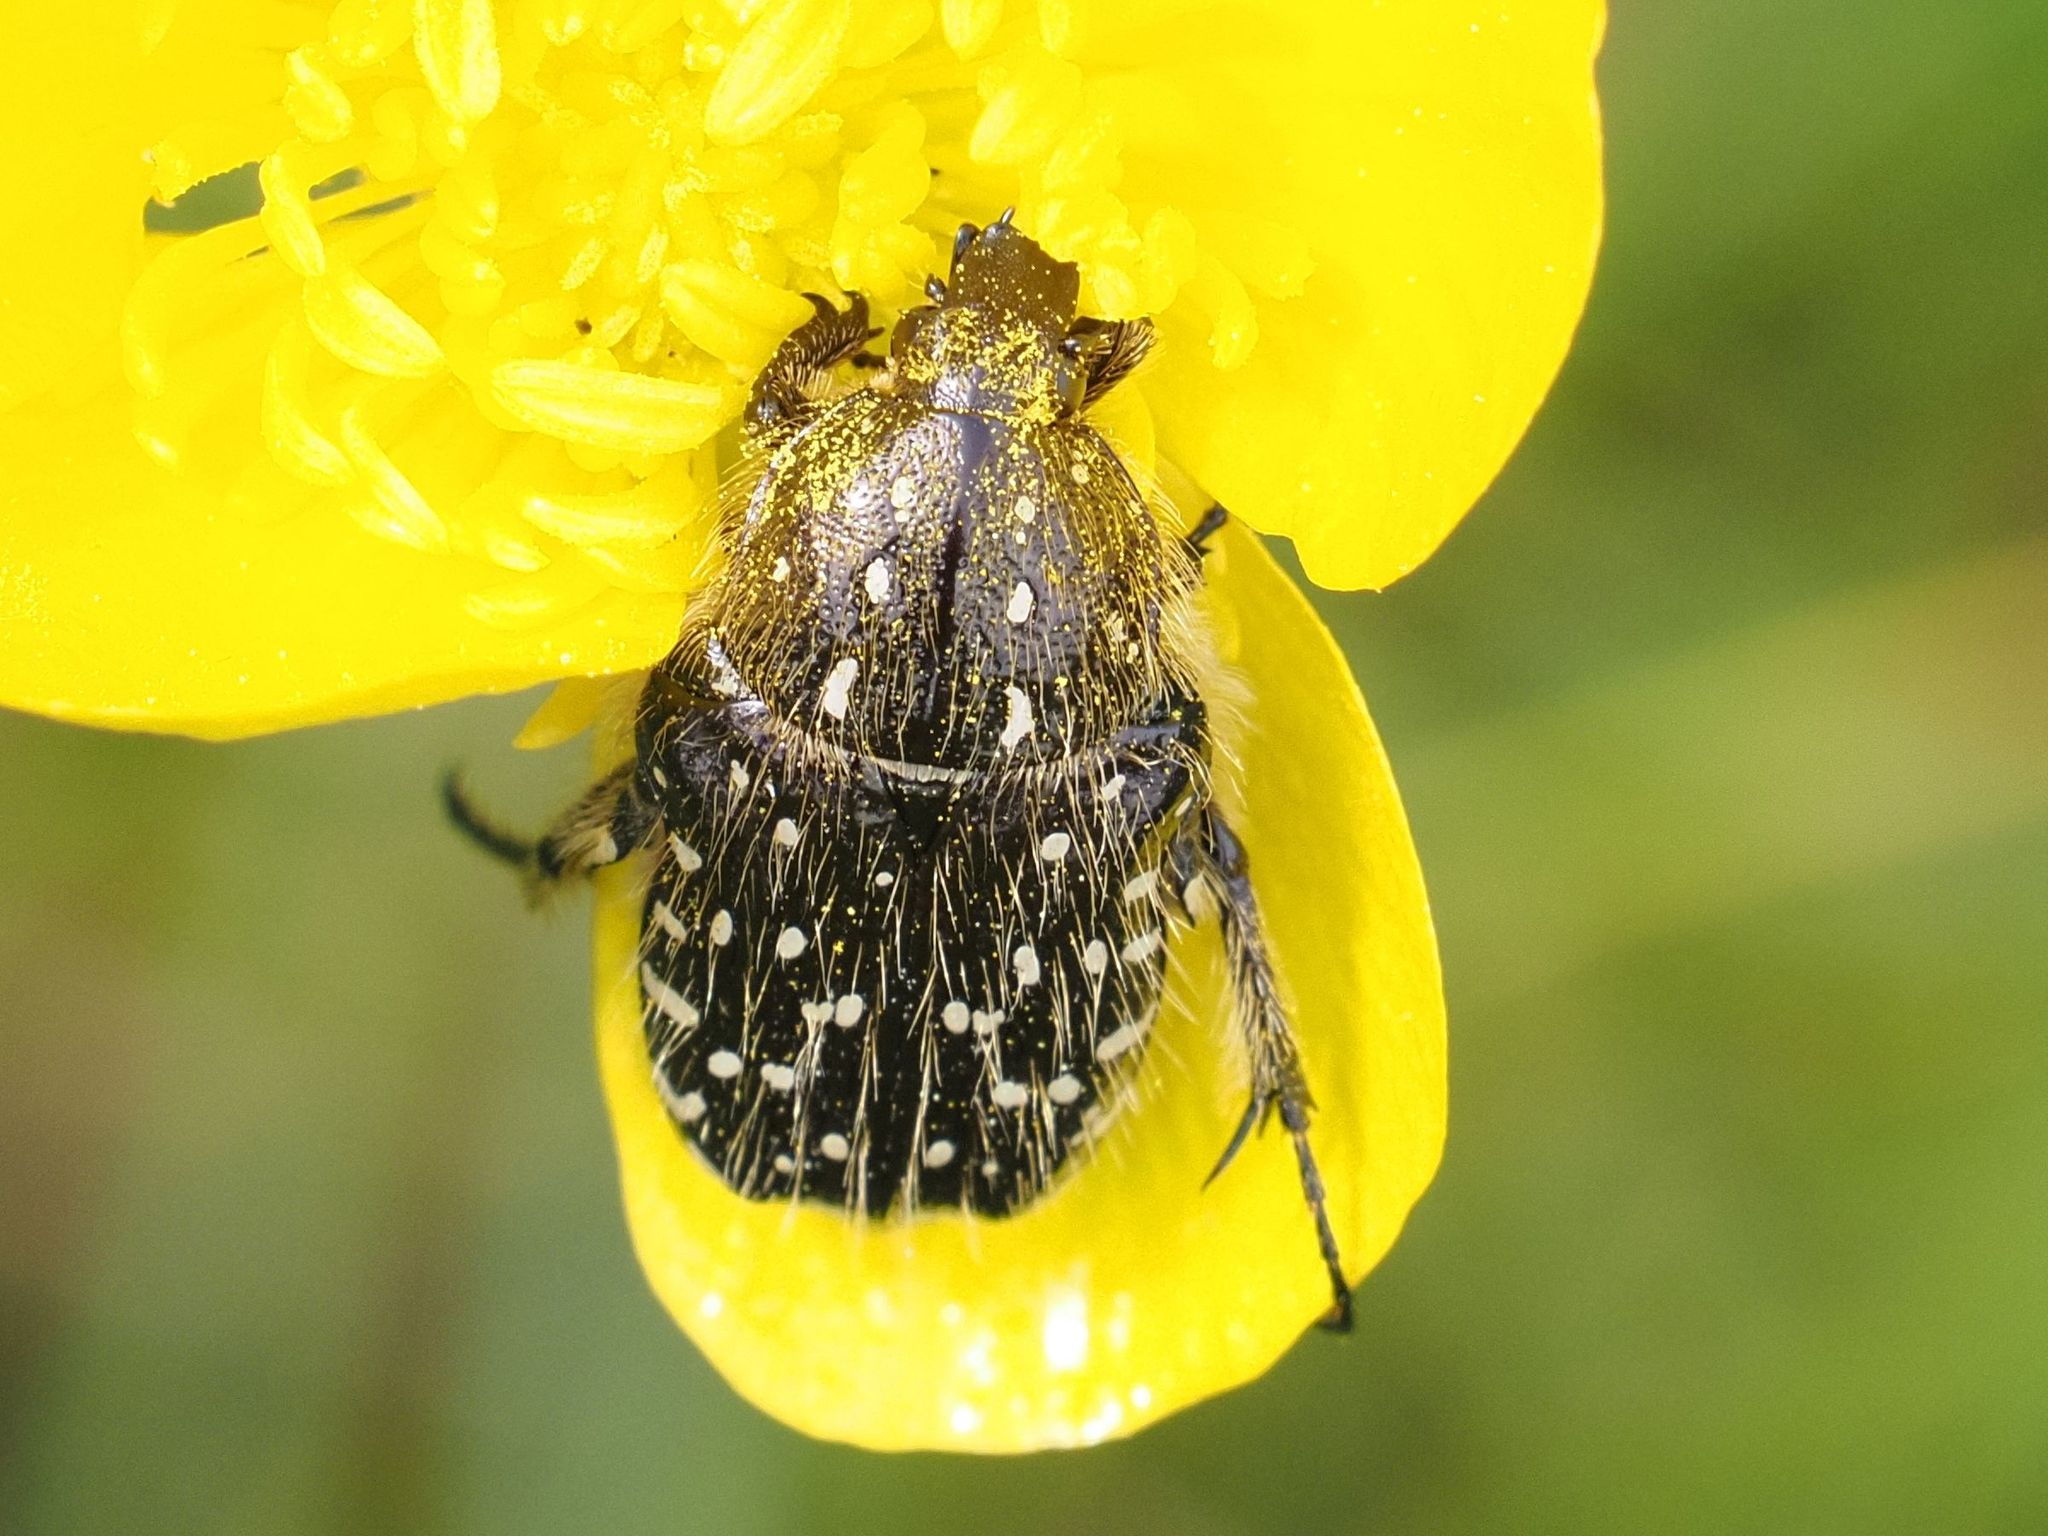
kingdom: Animalia
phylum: Arthropoda
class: Insecta
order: Coleoptera
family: Scarabaeidae
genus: Oxythyrea
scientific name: Oxythyrea funesta
